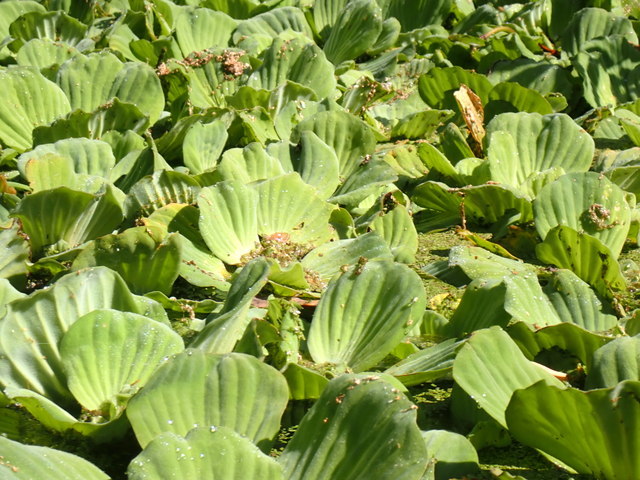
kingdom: Plantae
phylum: Tracheophyta
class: Liliopsida
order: Alismatales
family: Araceae
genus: Pistia
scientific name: Pistia stratiotes
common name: Water lettuce
